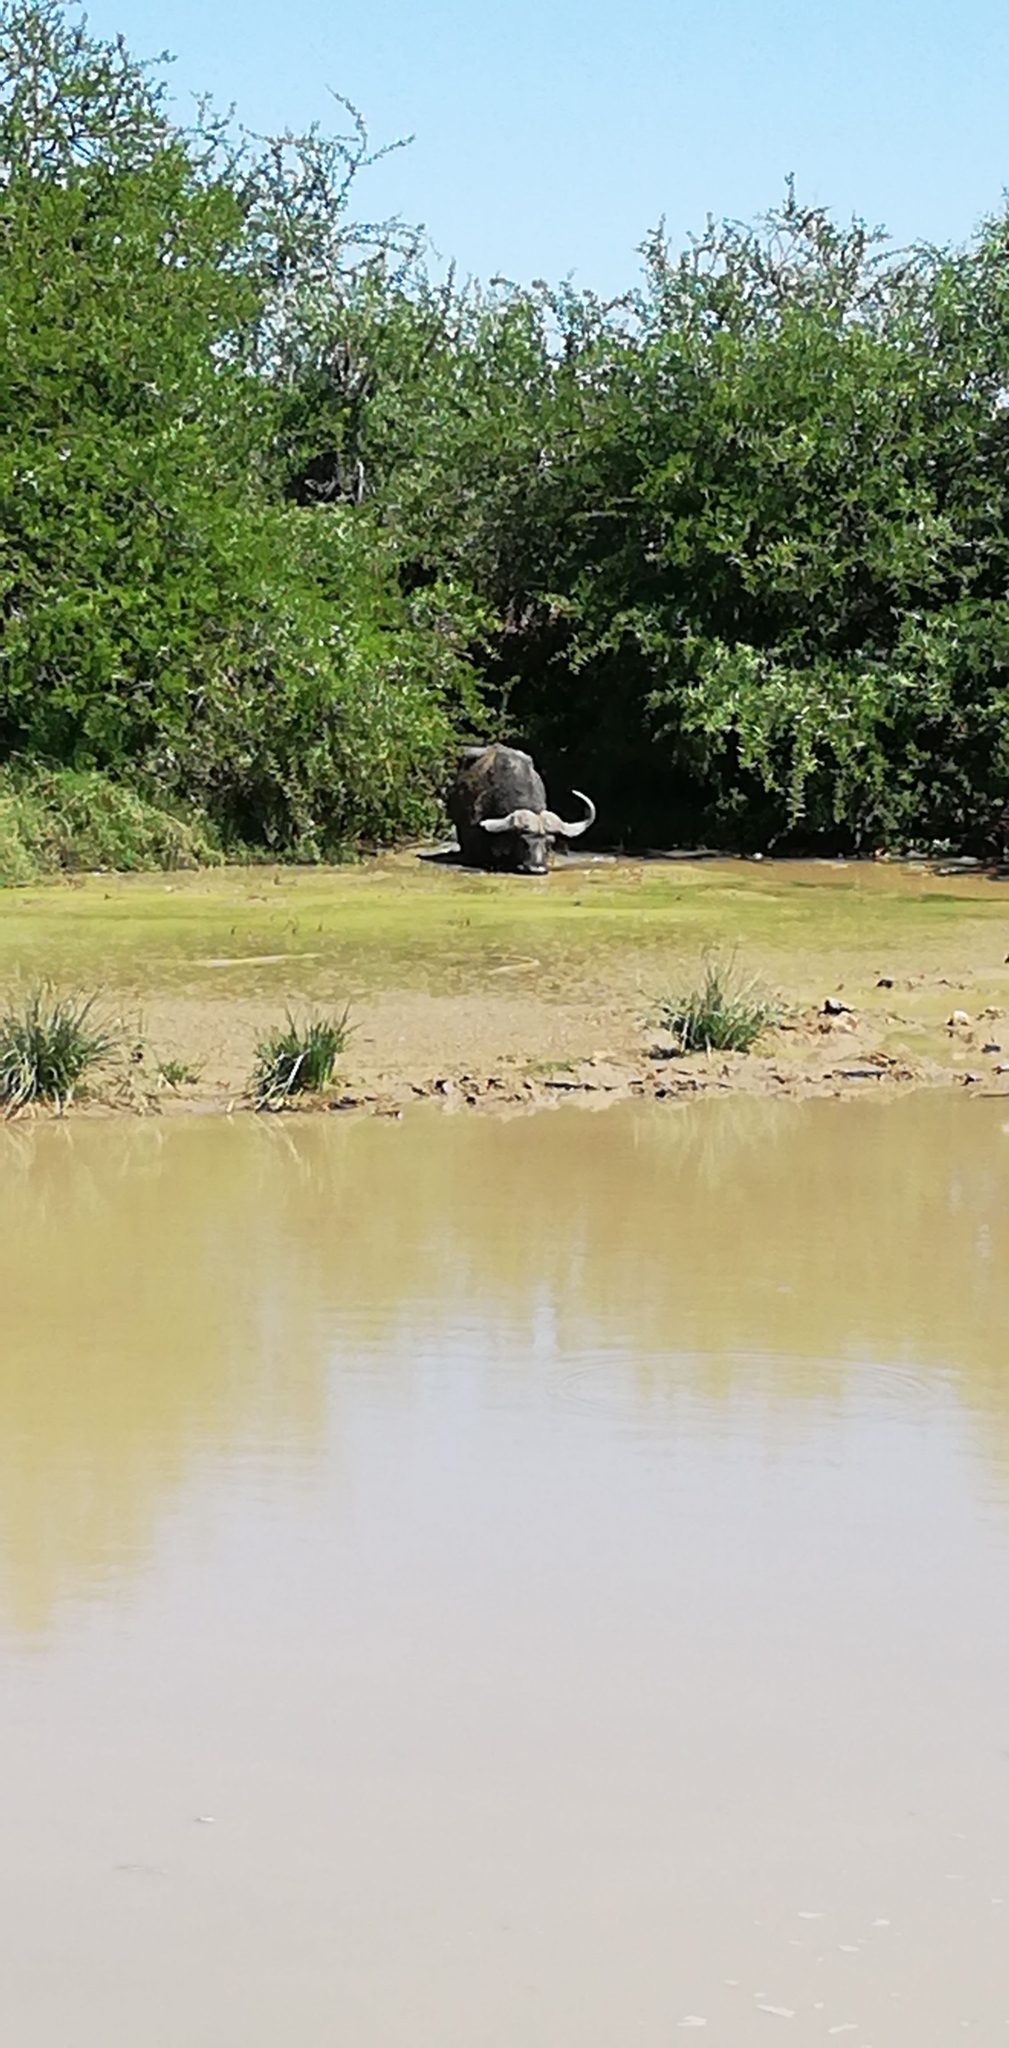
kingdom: Animalia
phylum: Chordata
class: Mammalia
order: Artiodactyla
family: Bovidae
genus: Syncerus
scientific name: Syncerus caffer
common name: African buffalo
